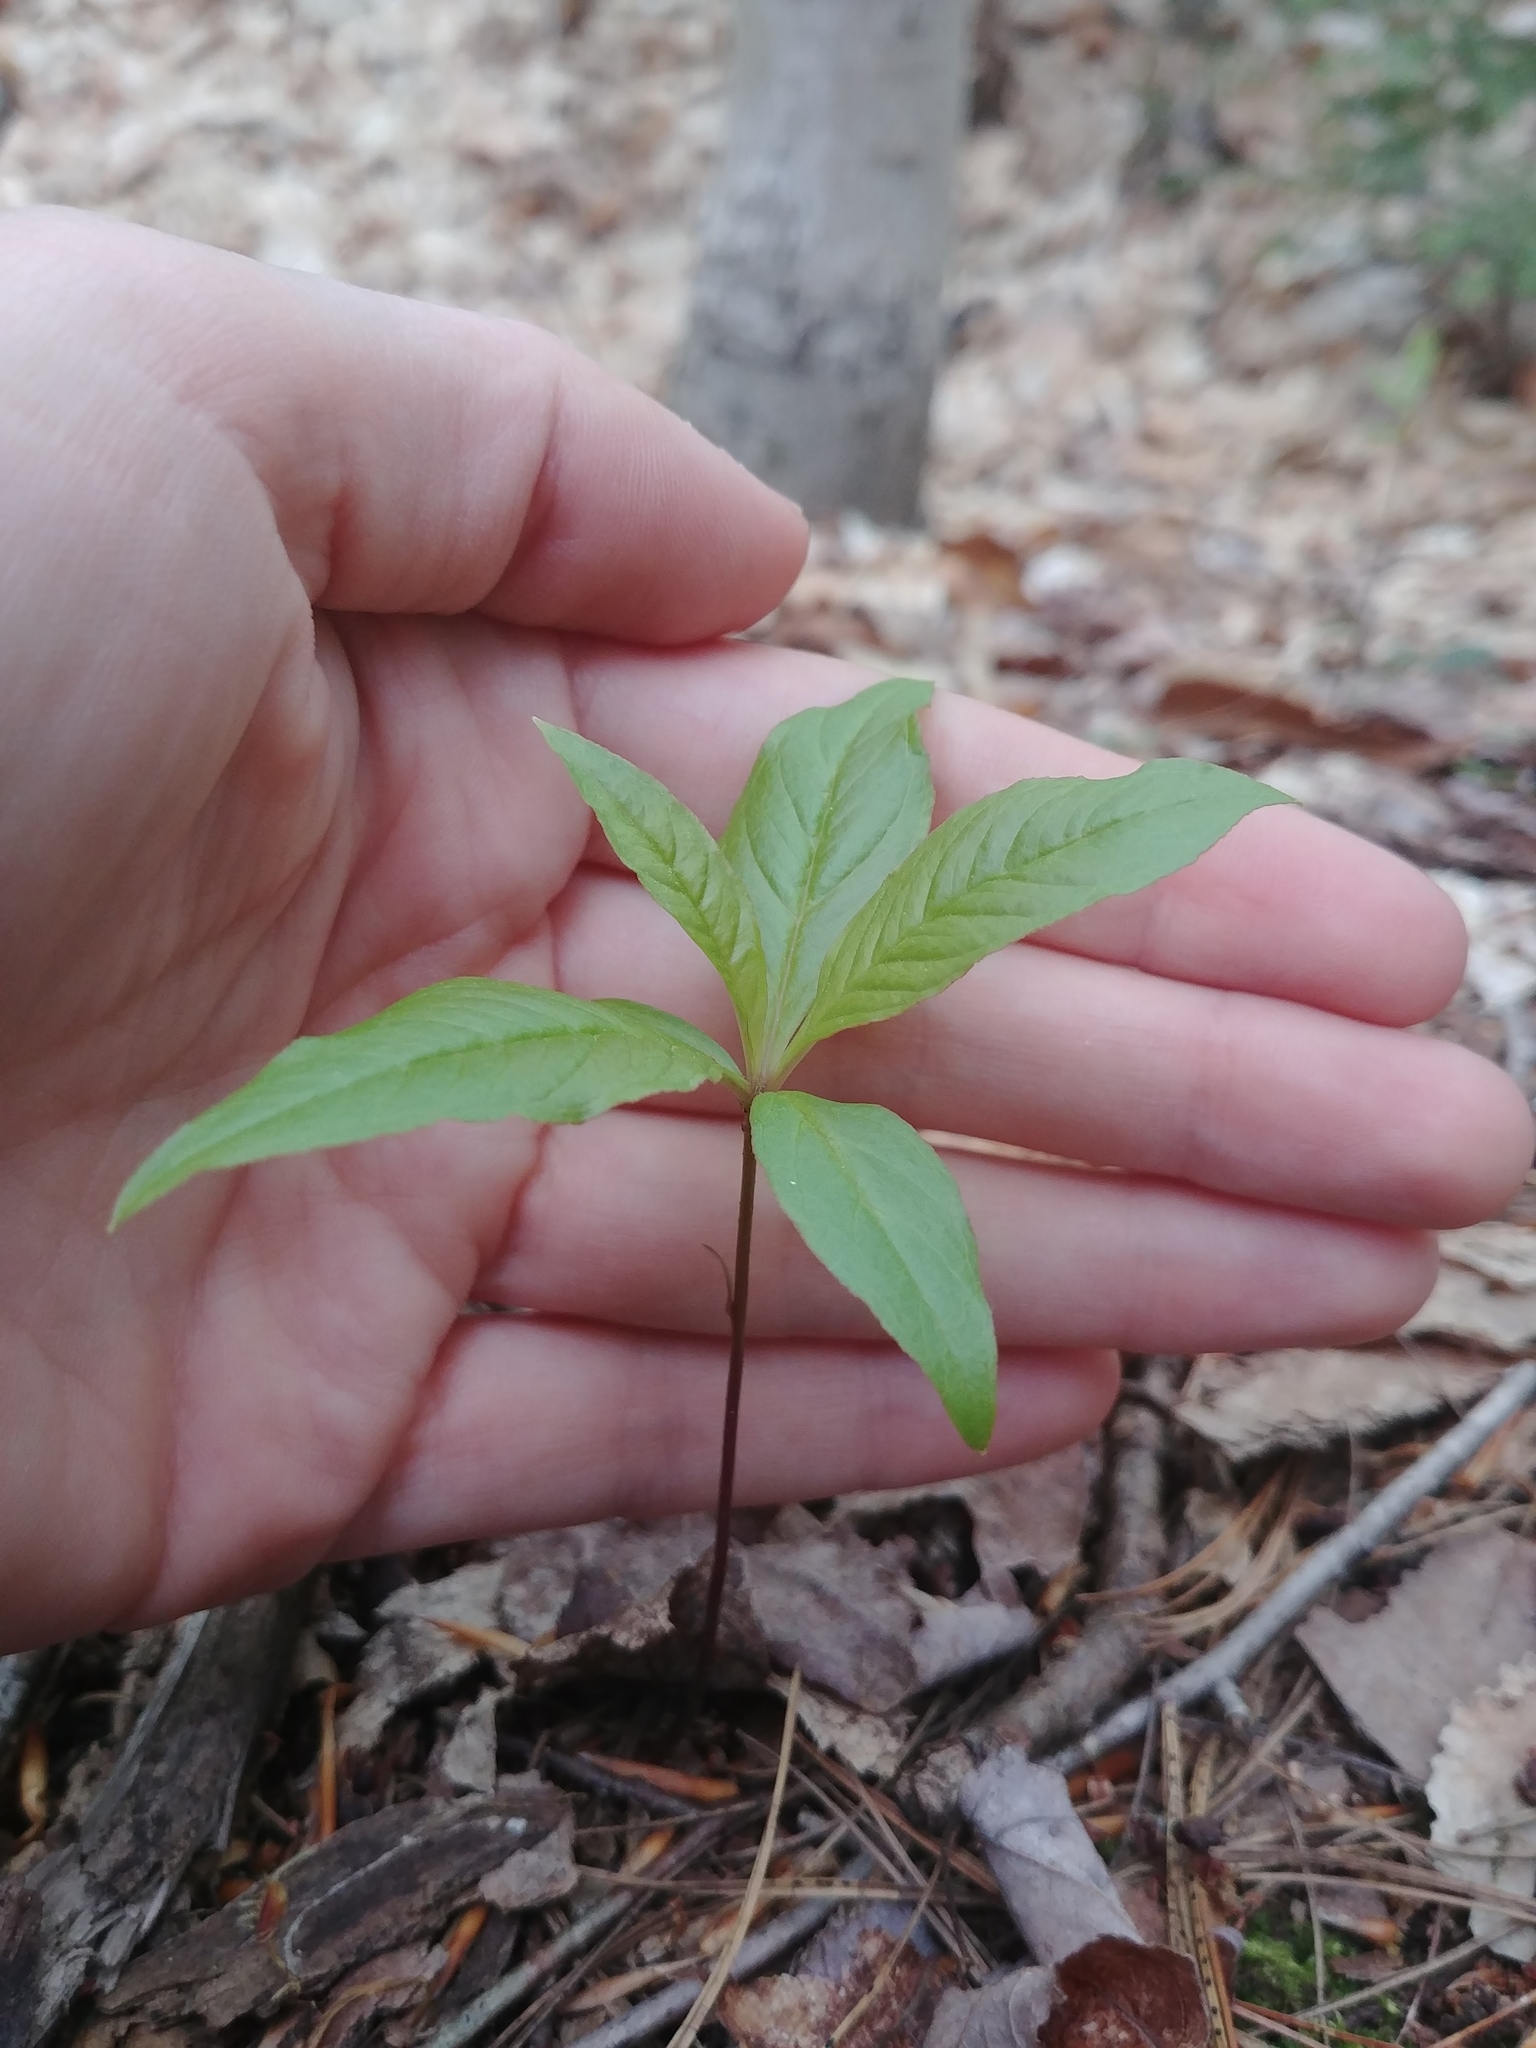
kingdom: Plantae
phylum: Tracheophyta
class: Magnoliopsida
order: Ericales
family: Primulaceae
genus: Lysimachia
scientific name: Lysimachia borealis
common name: American starflower
